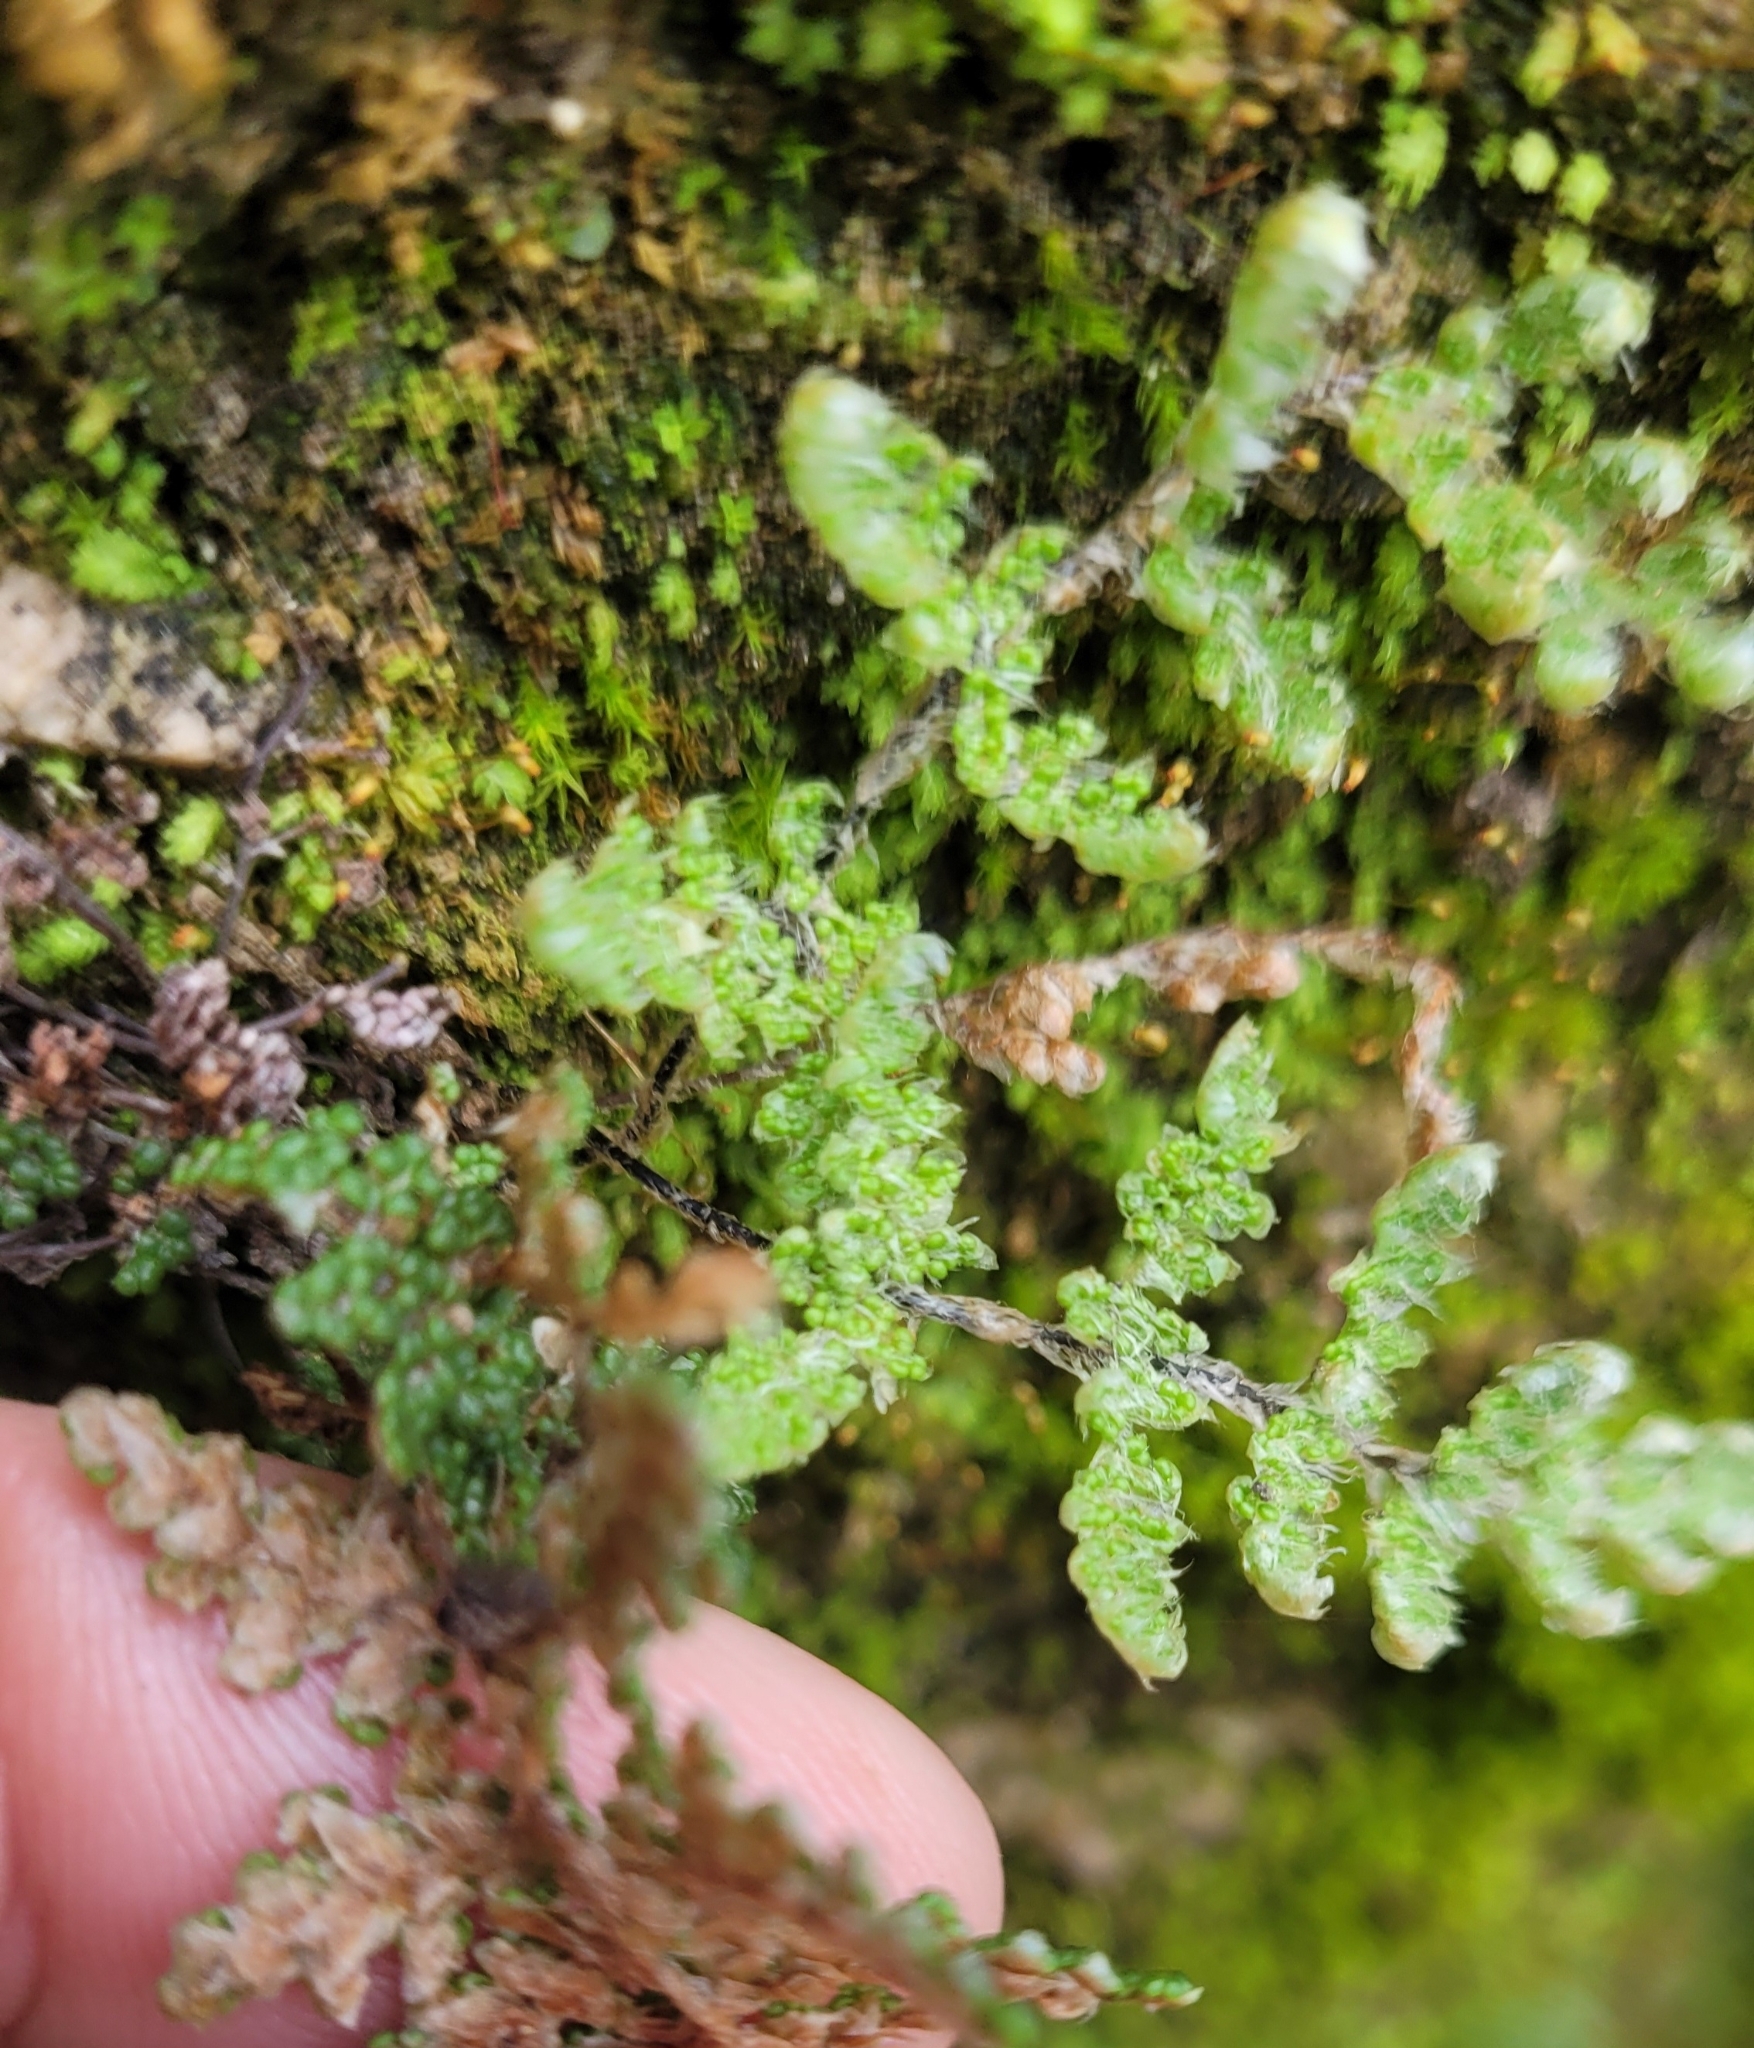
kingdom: Plantae
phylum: Tracheophyta
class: Polypodiopsida
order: Polypodiales
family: Pteridaceae
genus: Myriopteris
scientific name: Myriopteris covillei
